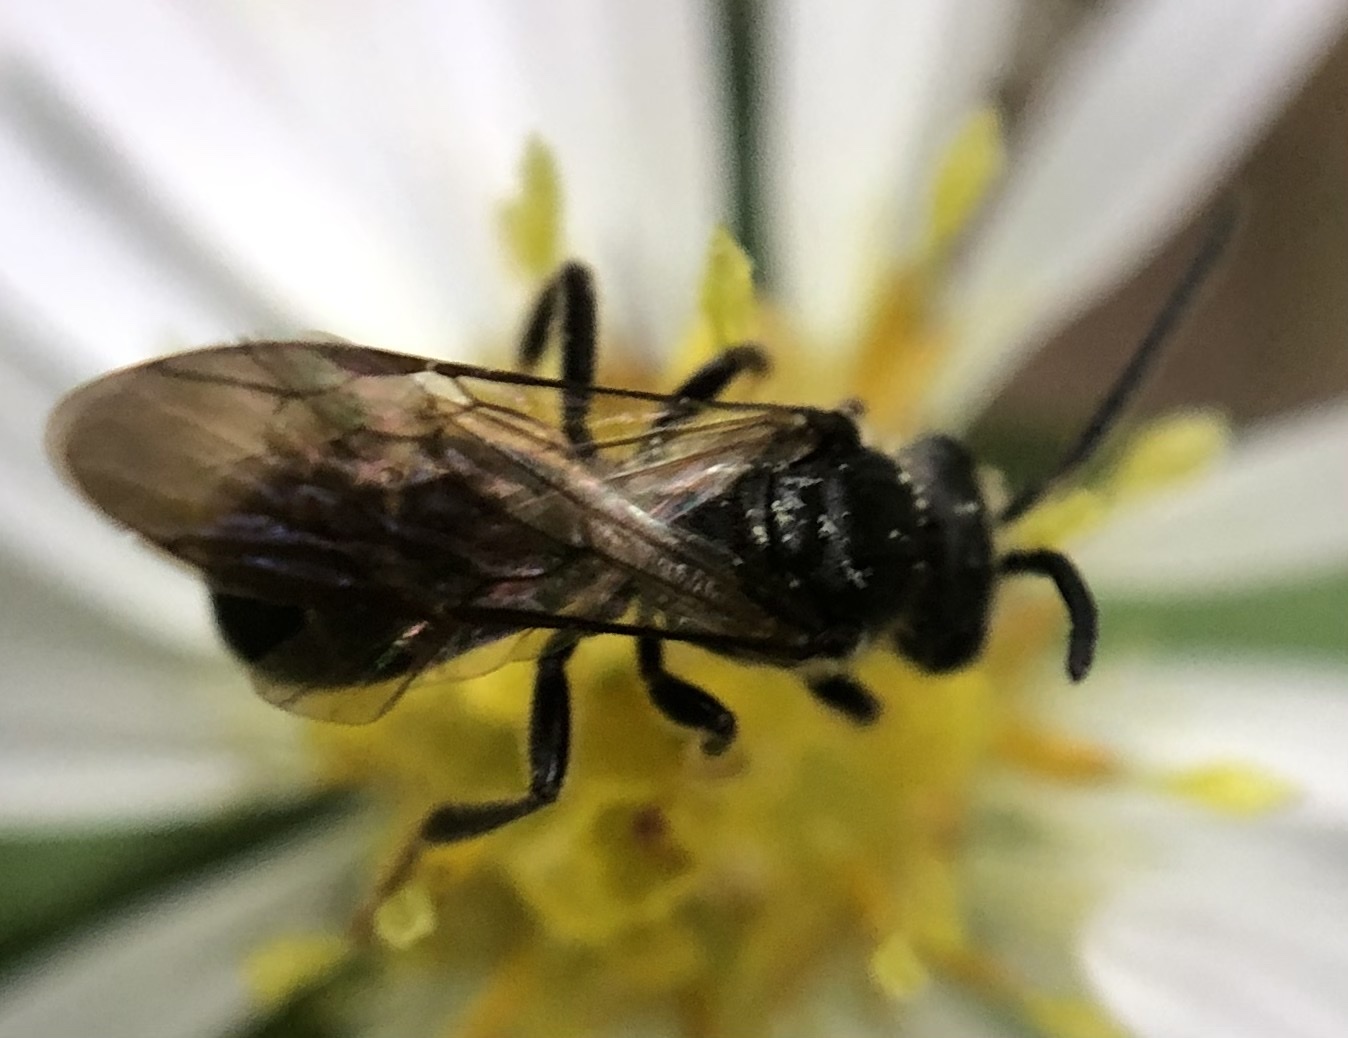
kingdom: Animalia
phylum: Arthropoda
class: Insecta
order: Hymenoptera
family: Halictidae
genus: Lasioglossum
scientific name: Lasioglossum fuscipenne
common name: Brown-winged sweat bee
